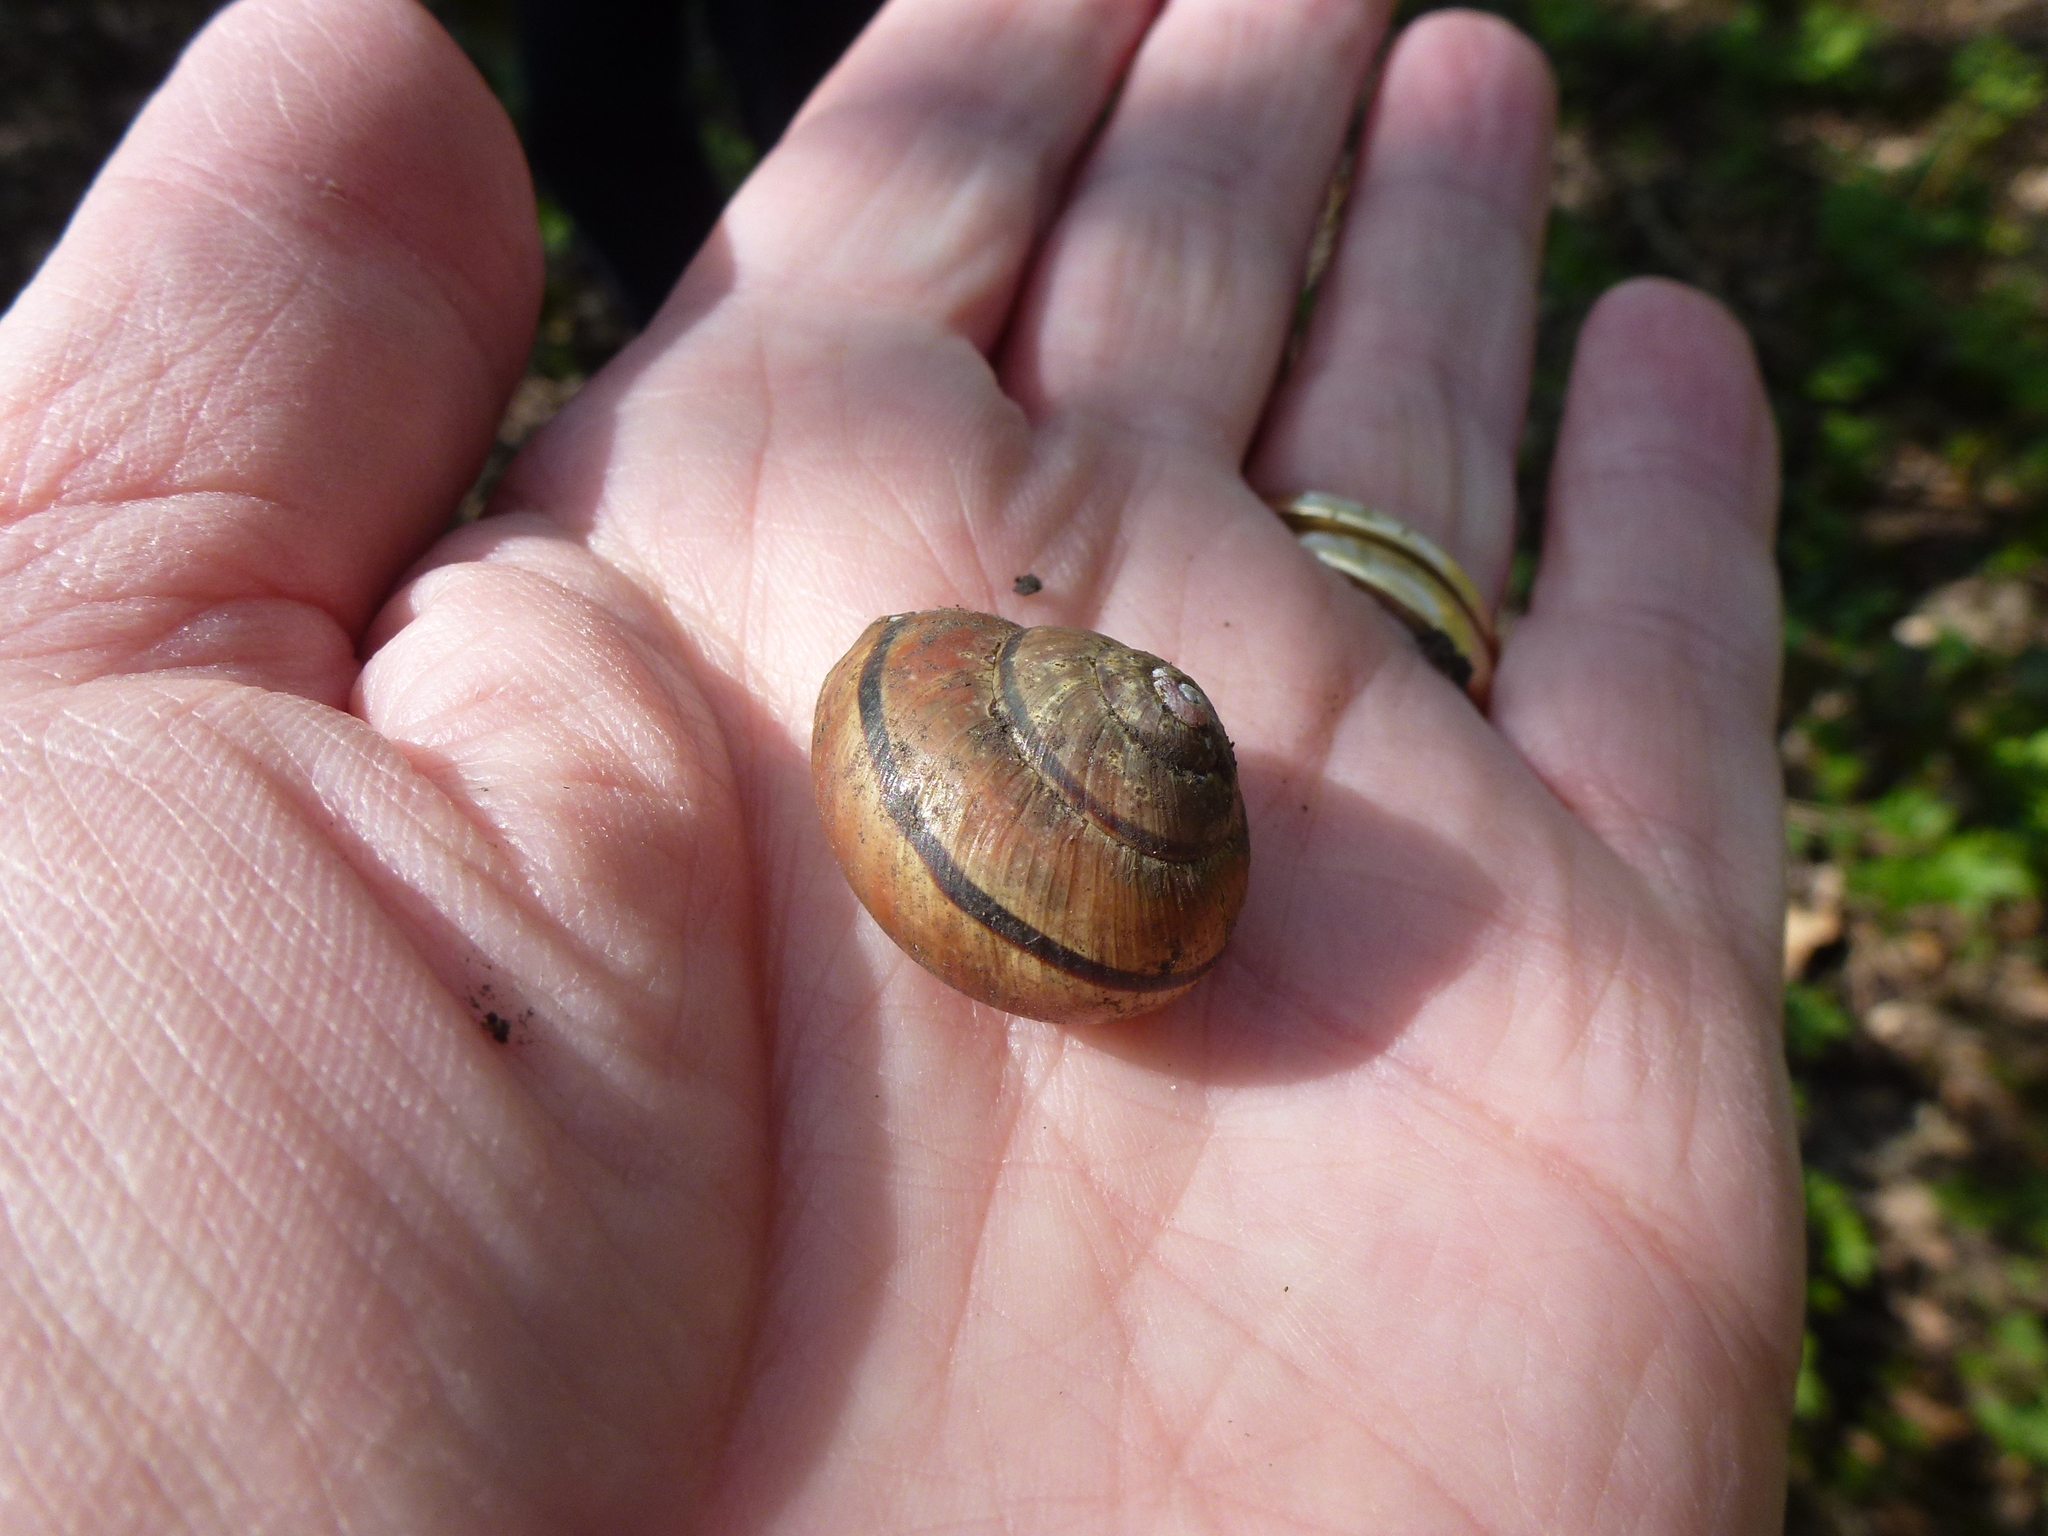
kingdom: Animalia
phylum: Mollusca
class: Gastropoda
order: Stylommatophora
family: Helicidae
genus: Cepaea
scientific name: Cepaea nemoralis
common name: Grovesnail
